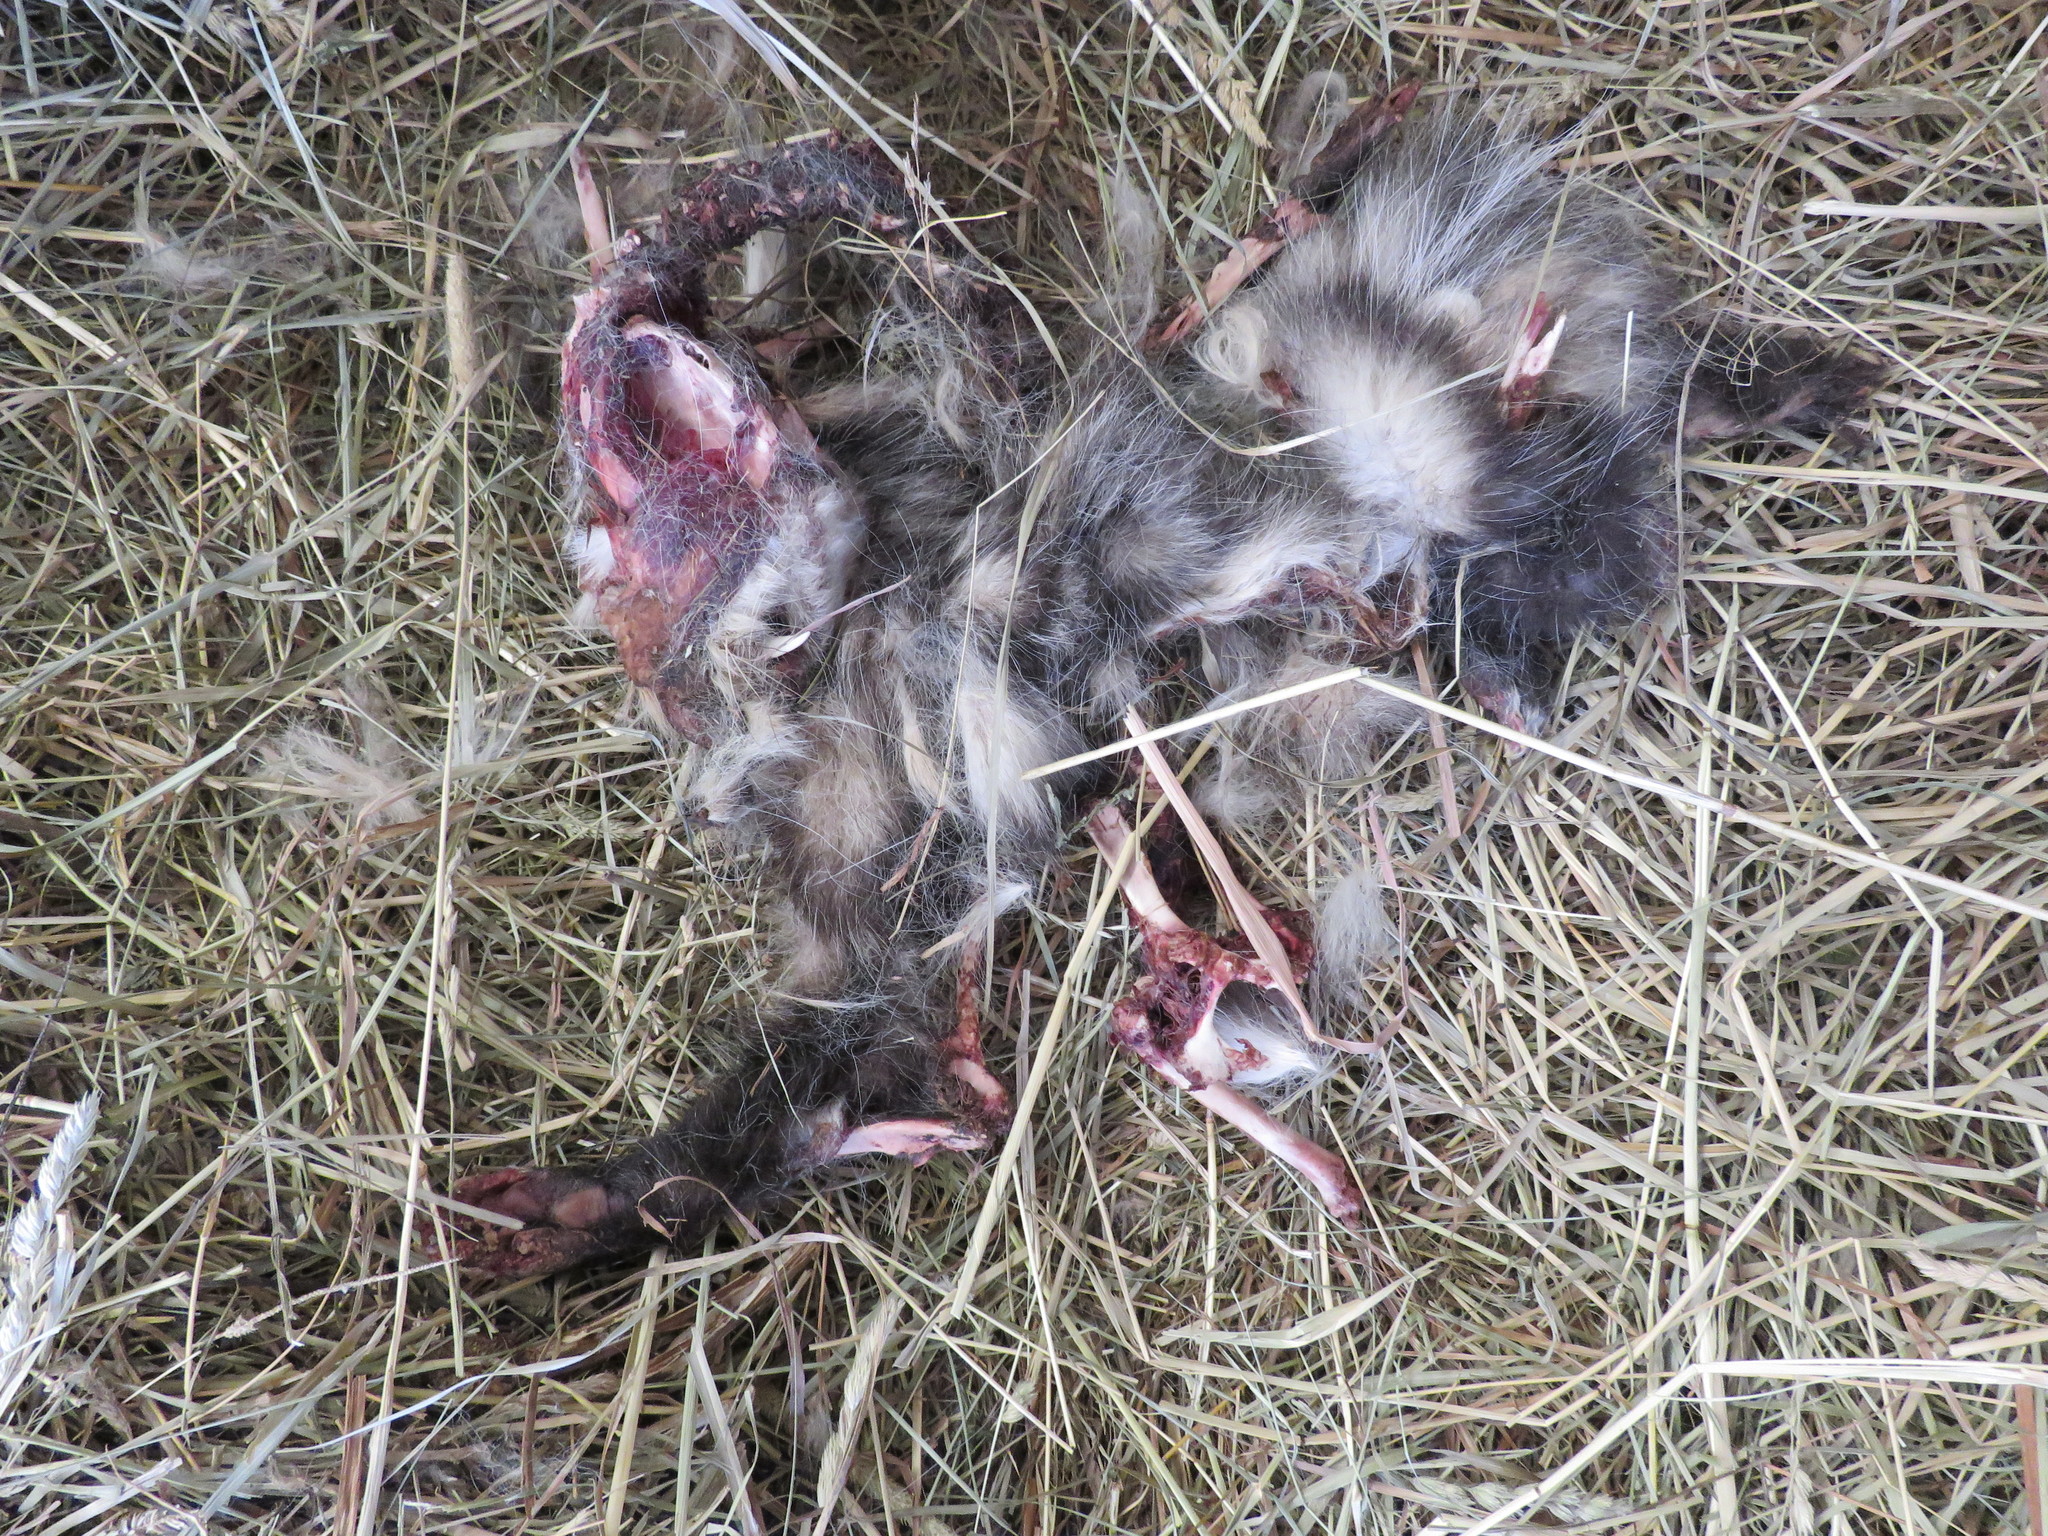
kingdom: Animalia
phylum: Chordata
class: Mammalia
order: Didelphimorphia
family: Didelphidae
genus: Didelphis
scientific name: Didelphis virginiana
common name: Virginia opossum
